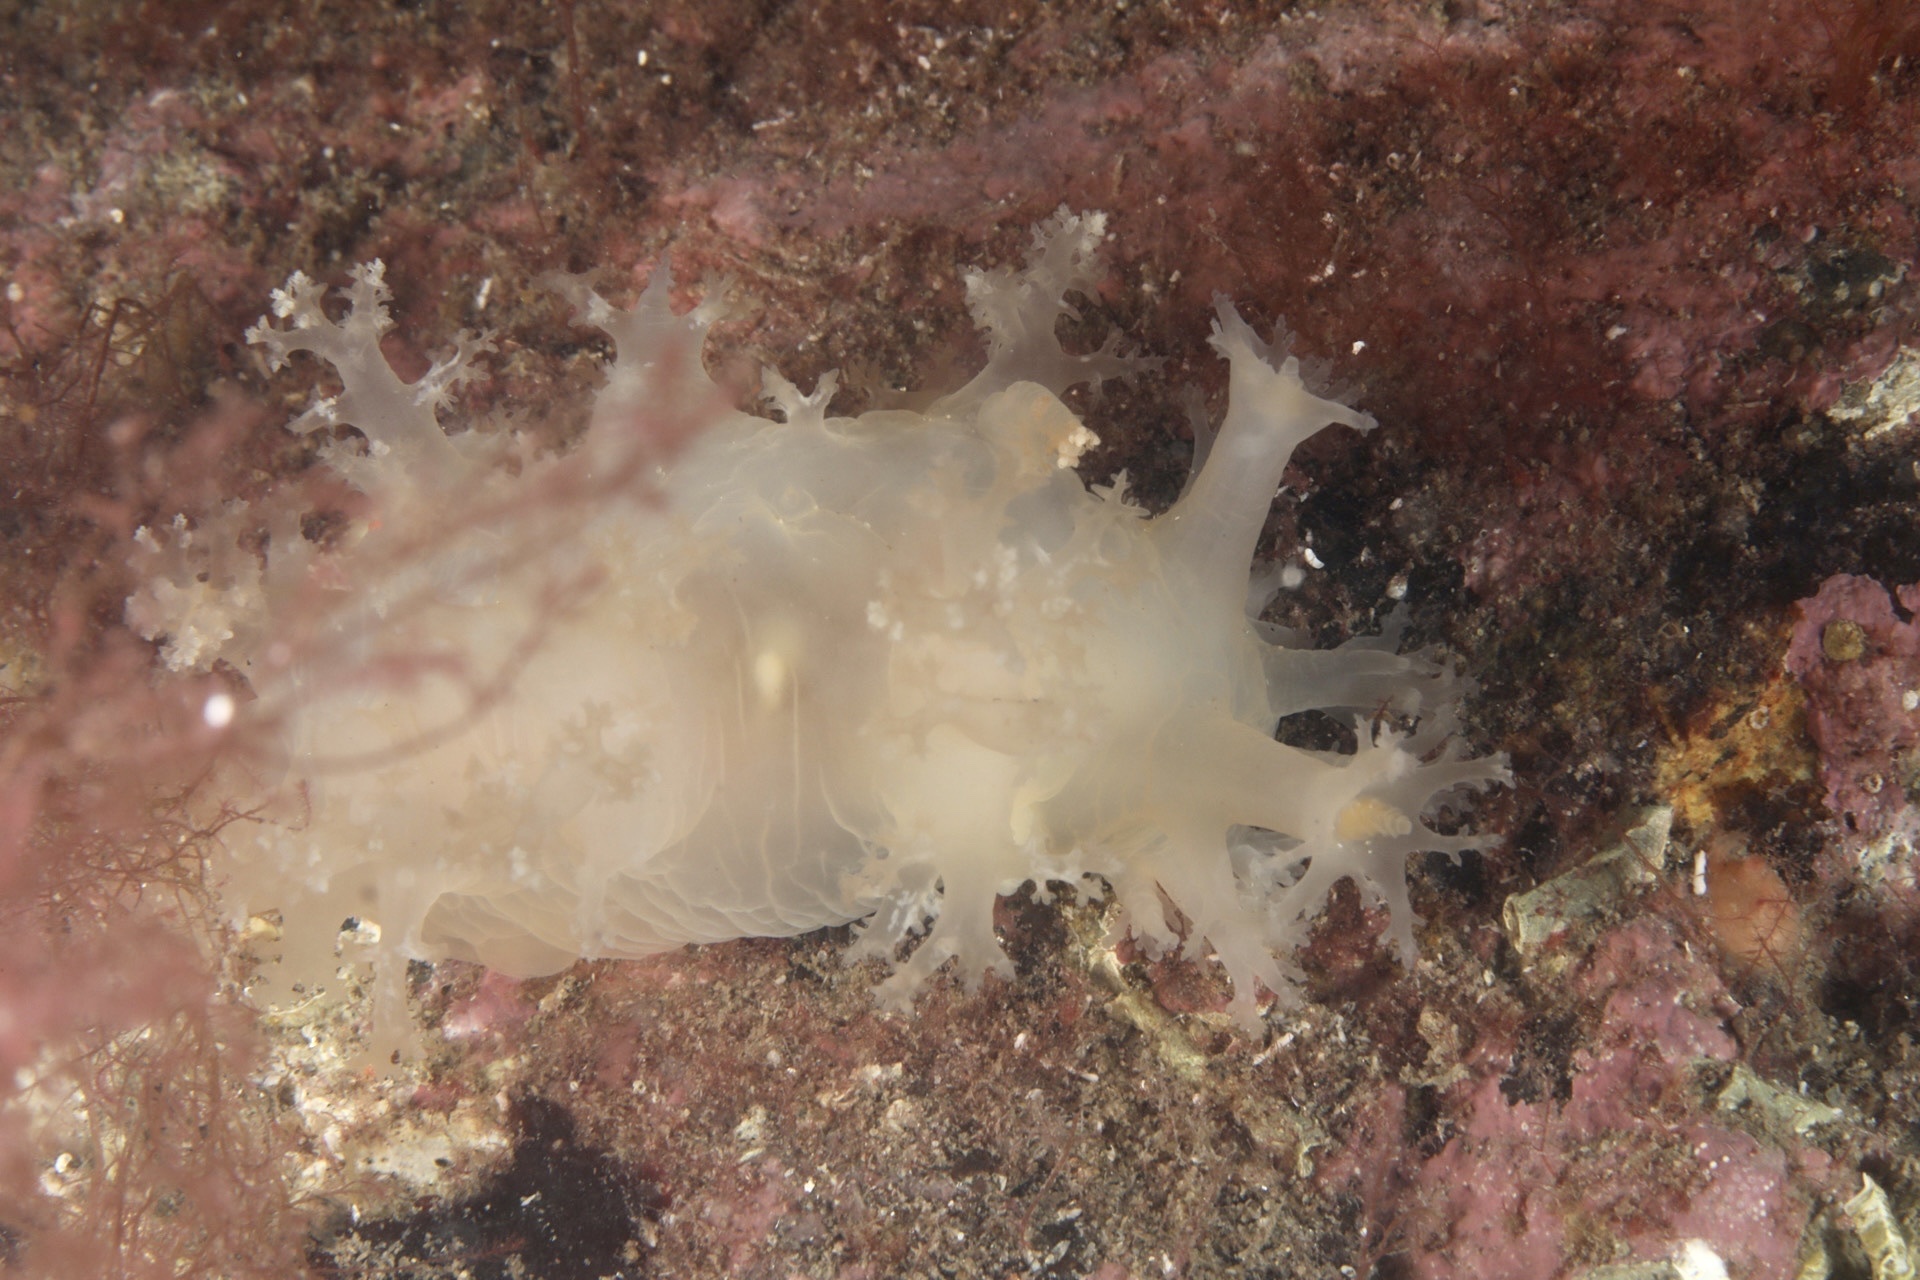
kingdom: Animalia
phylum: Mollusca
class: Gastropoda
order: Nudibranchia
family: Dendronotidae
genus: Dendronotus
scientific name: Dendronotus lacteus
